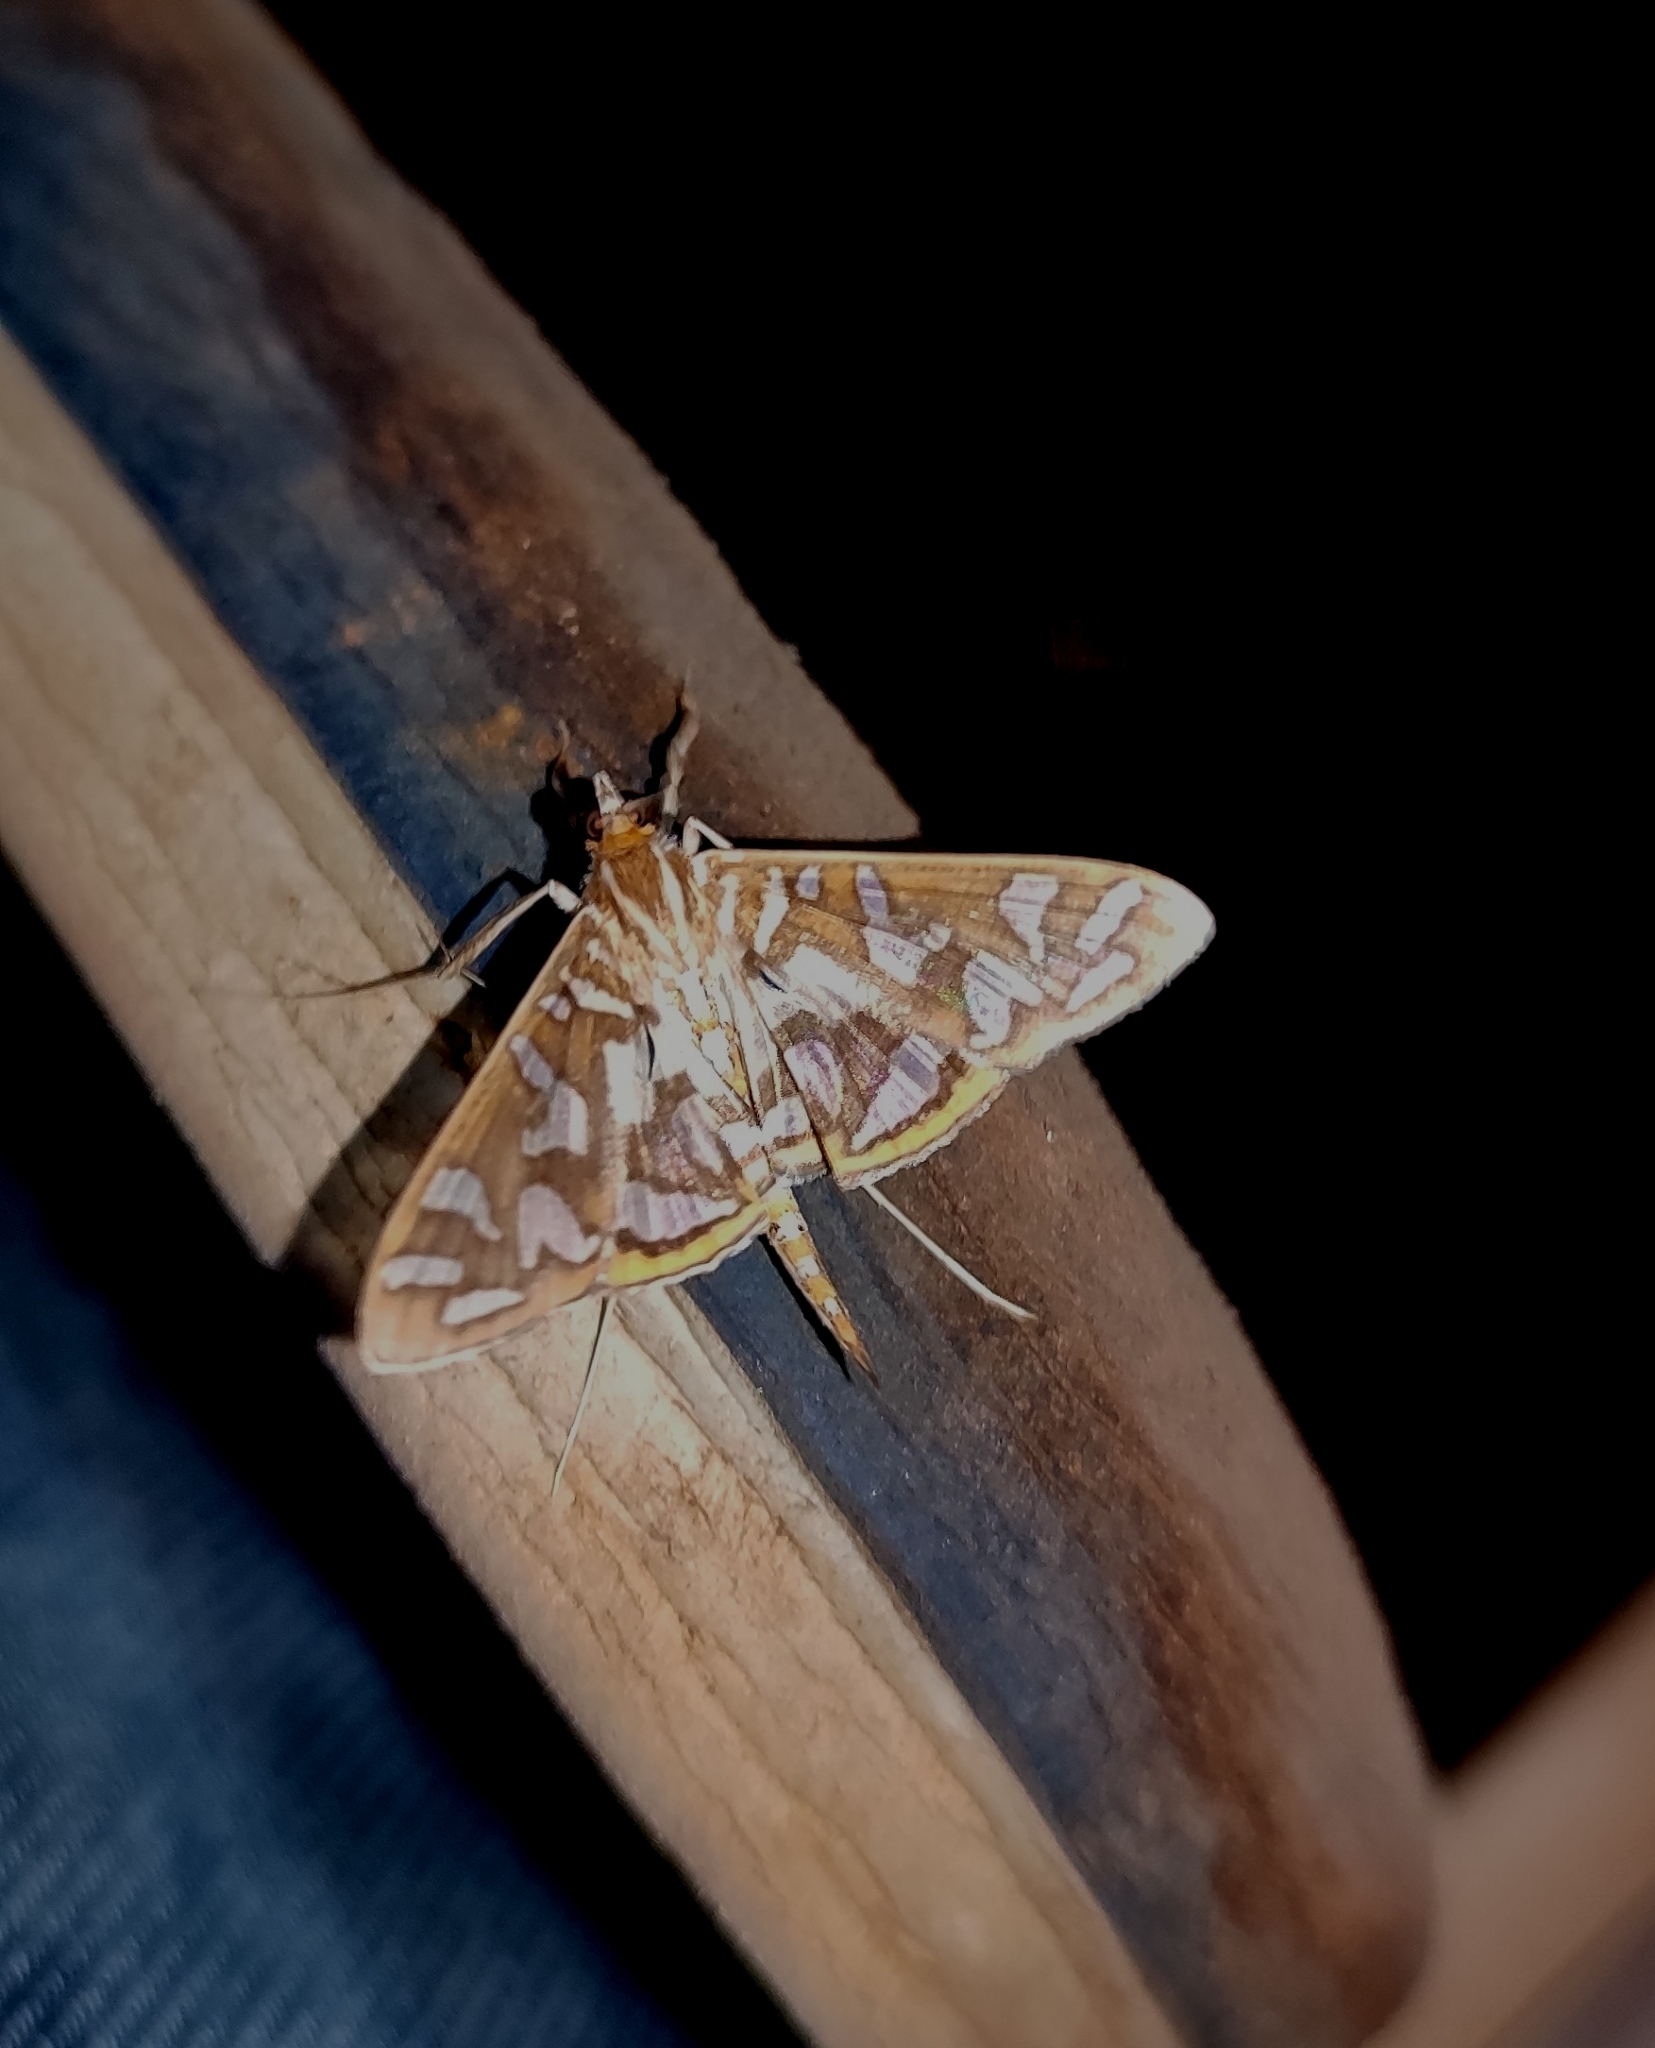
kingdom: Animalia
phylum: Arthropoda
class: Insecta
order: Lepidoptera
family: Crambidae
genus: Nausinoe
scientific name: Nausinoe perspectata
